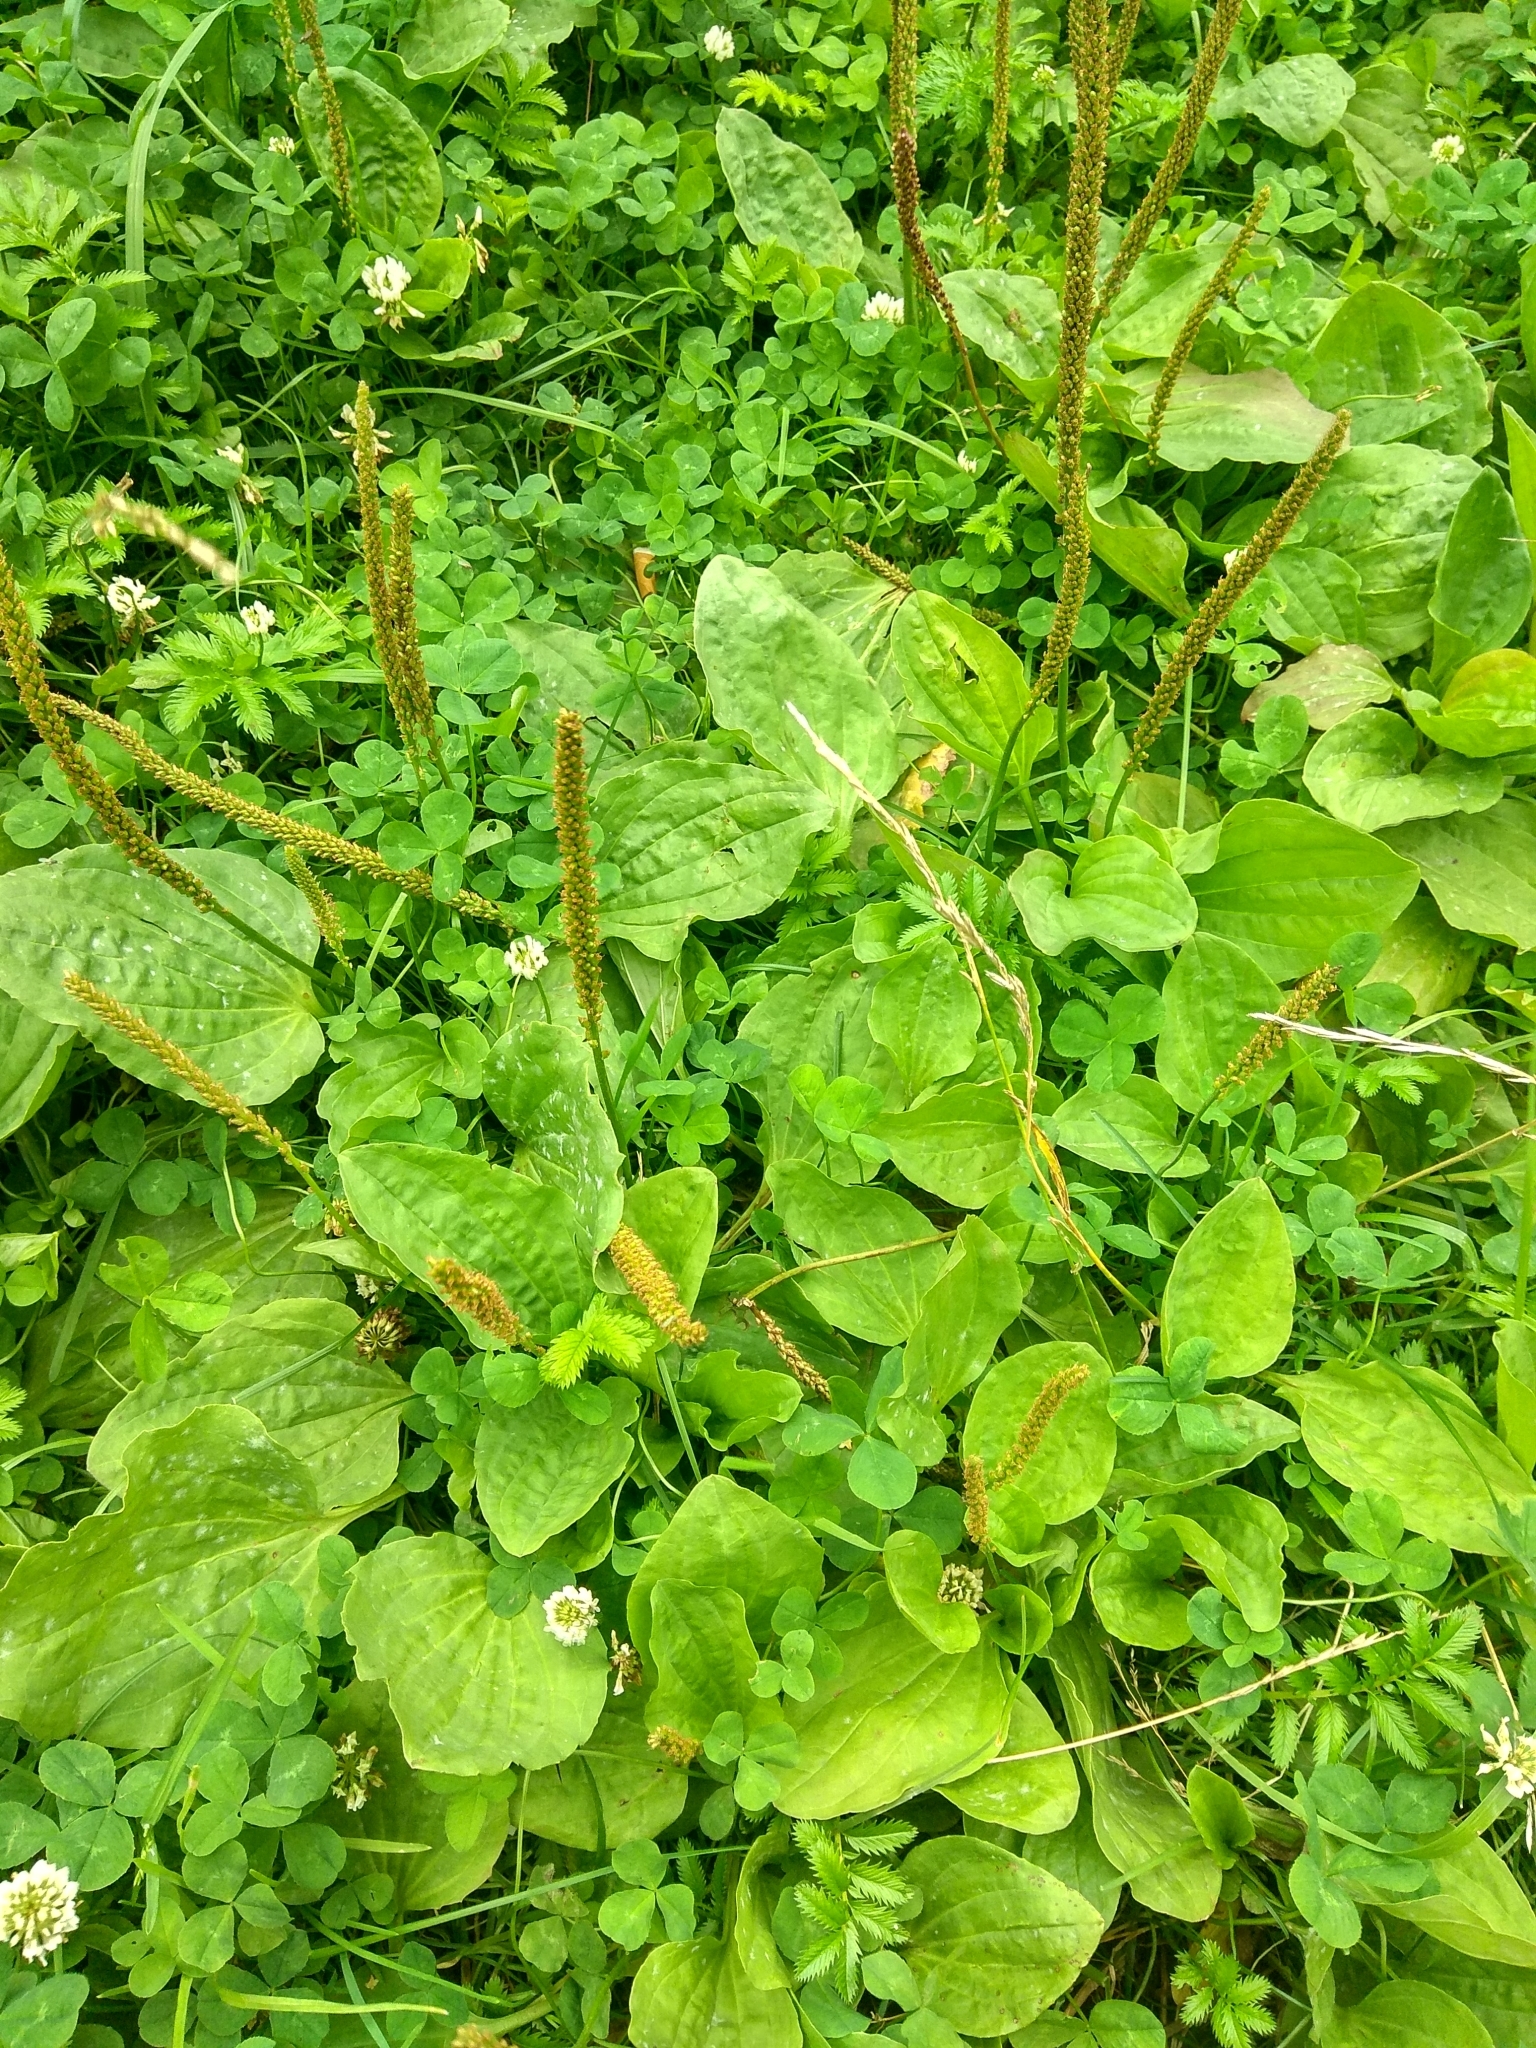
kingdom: Plantae
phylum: Tracheophyta
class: Magnoliopsida
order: Lamiales
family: Plantaginaceae
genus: Plantago
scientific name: Plantago major
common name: Common plantain
